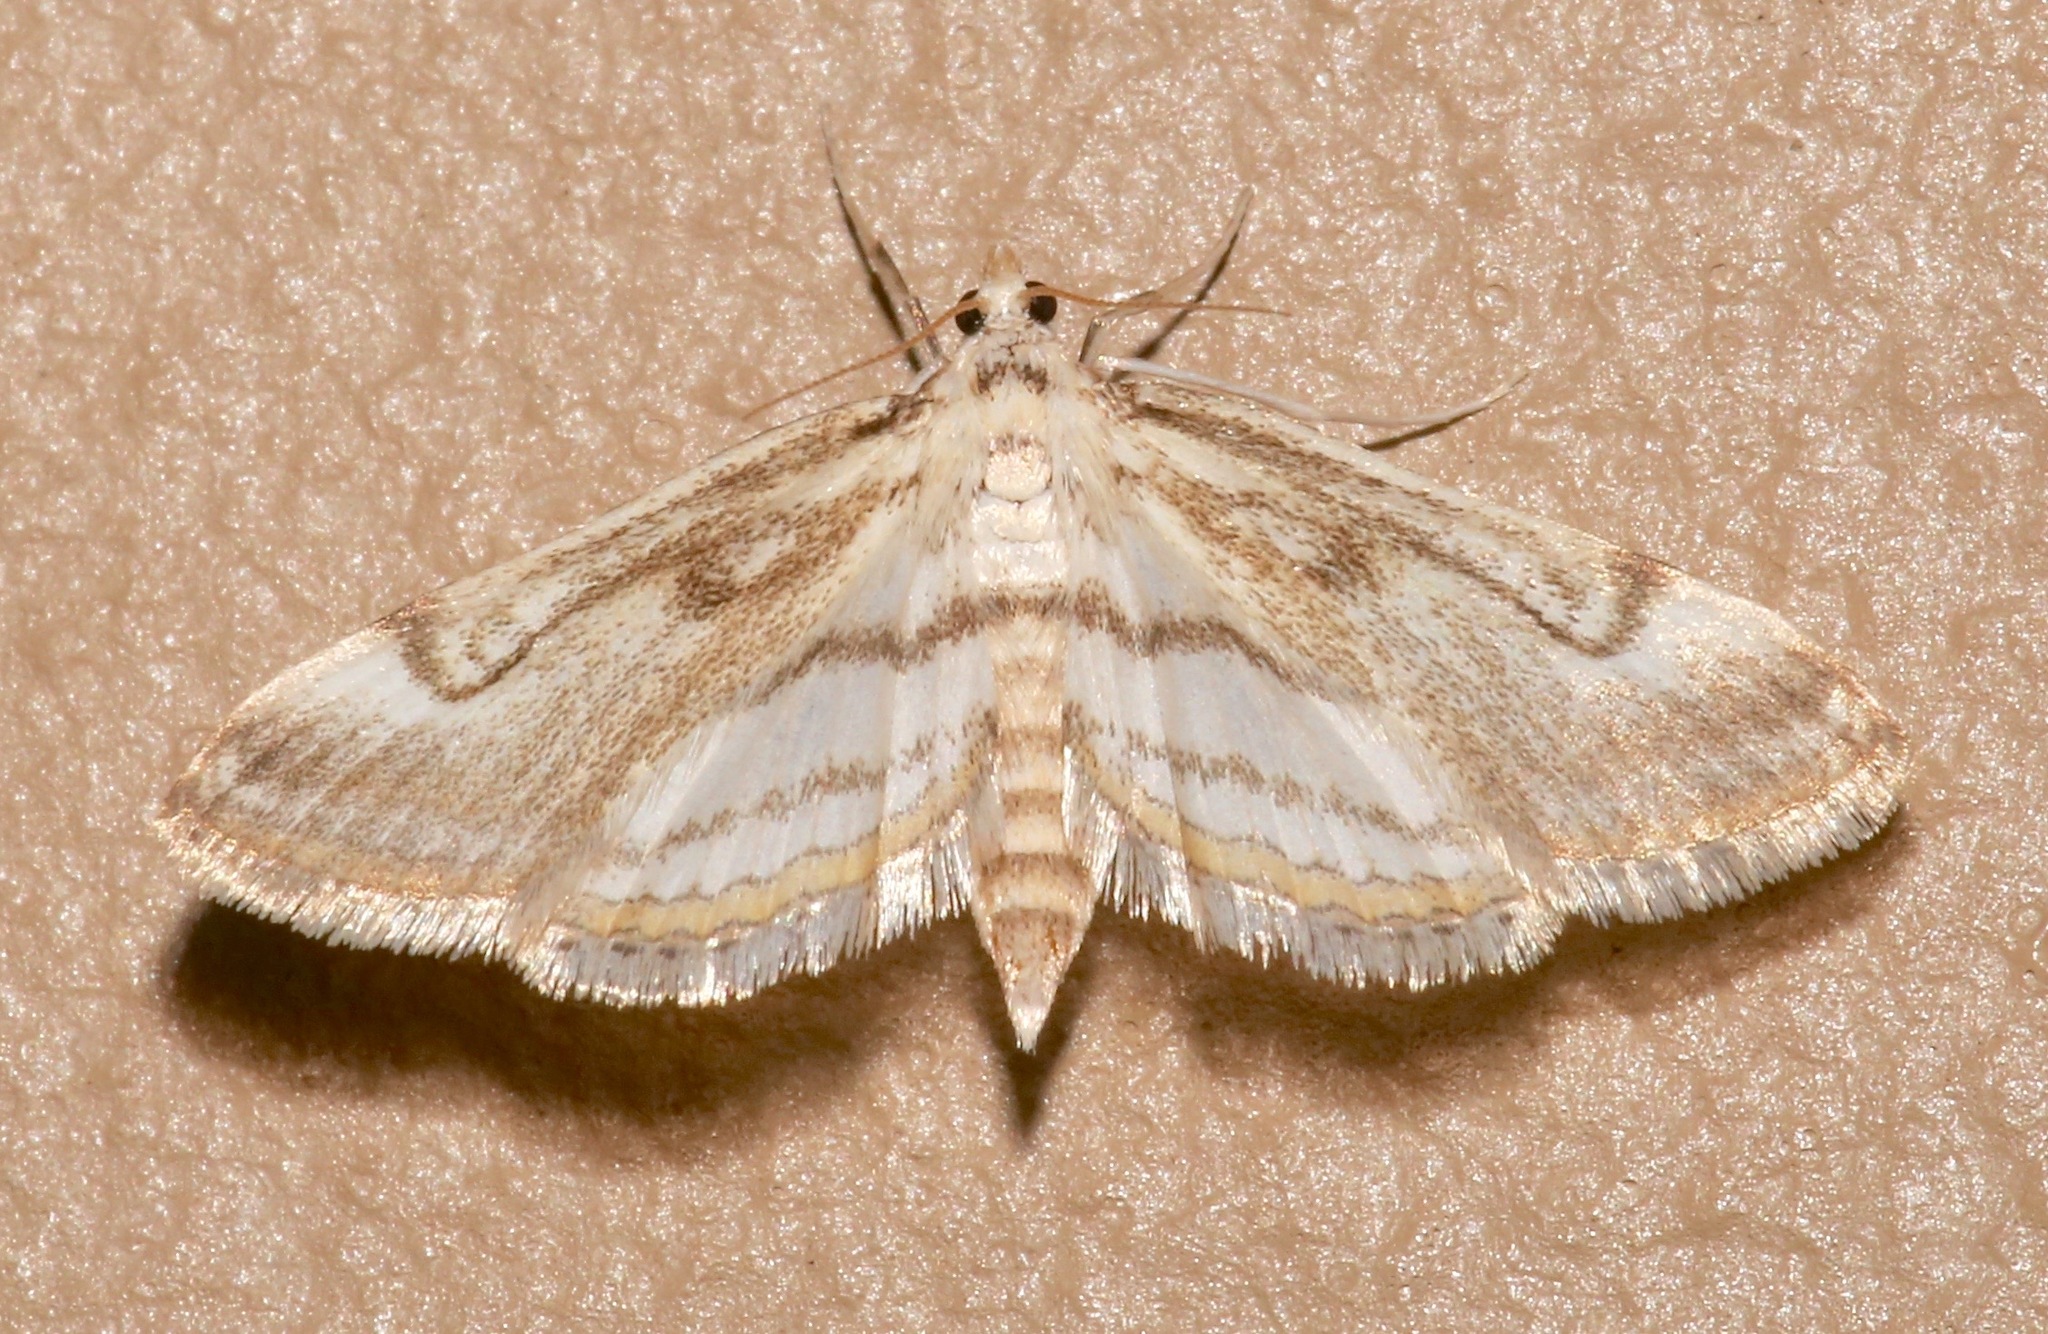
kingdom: Animalia
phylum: Arthropoda
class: Insecta
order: Lepidoptera
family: Crambidae
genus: Parapoynx
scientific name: Parapoynx badiusalis
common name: Chestnut-marked pondweed moth
